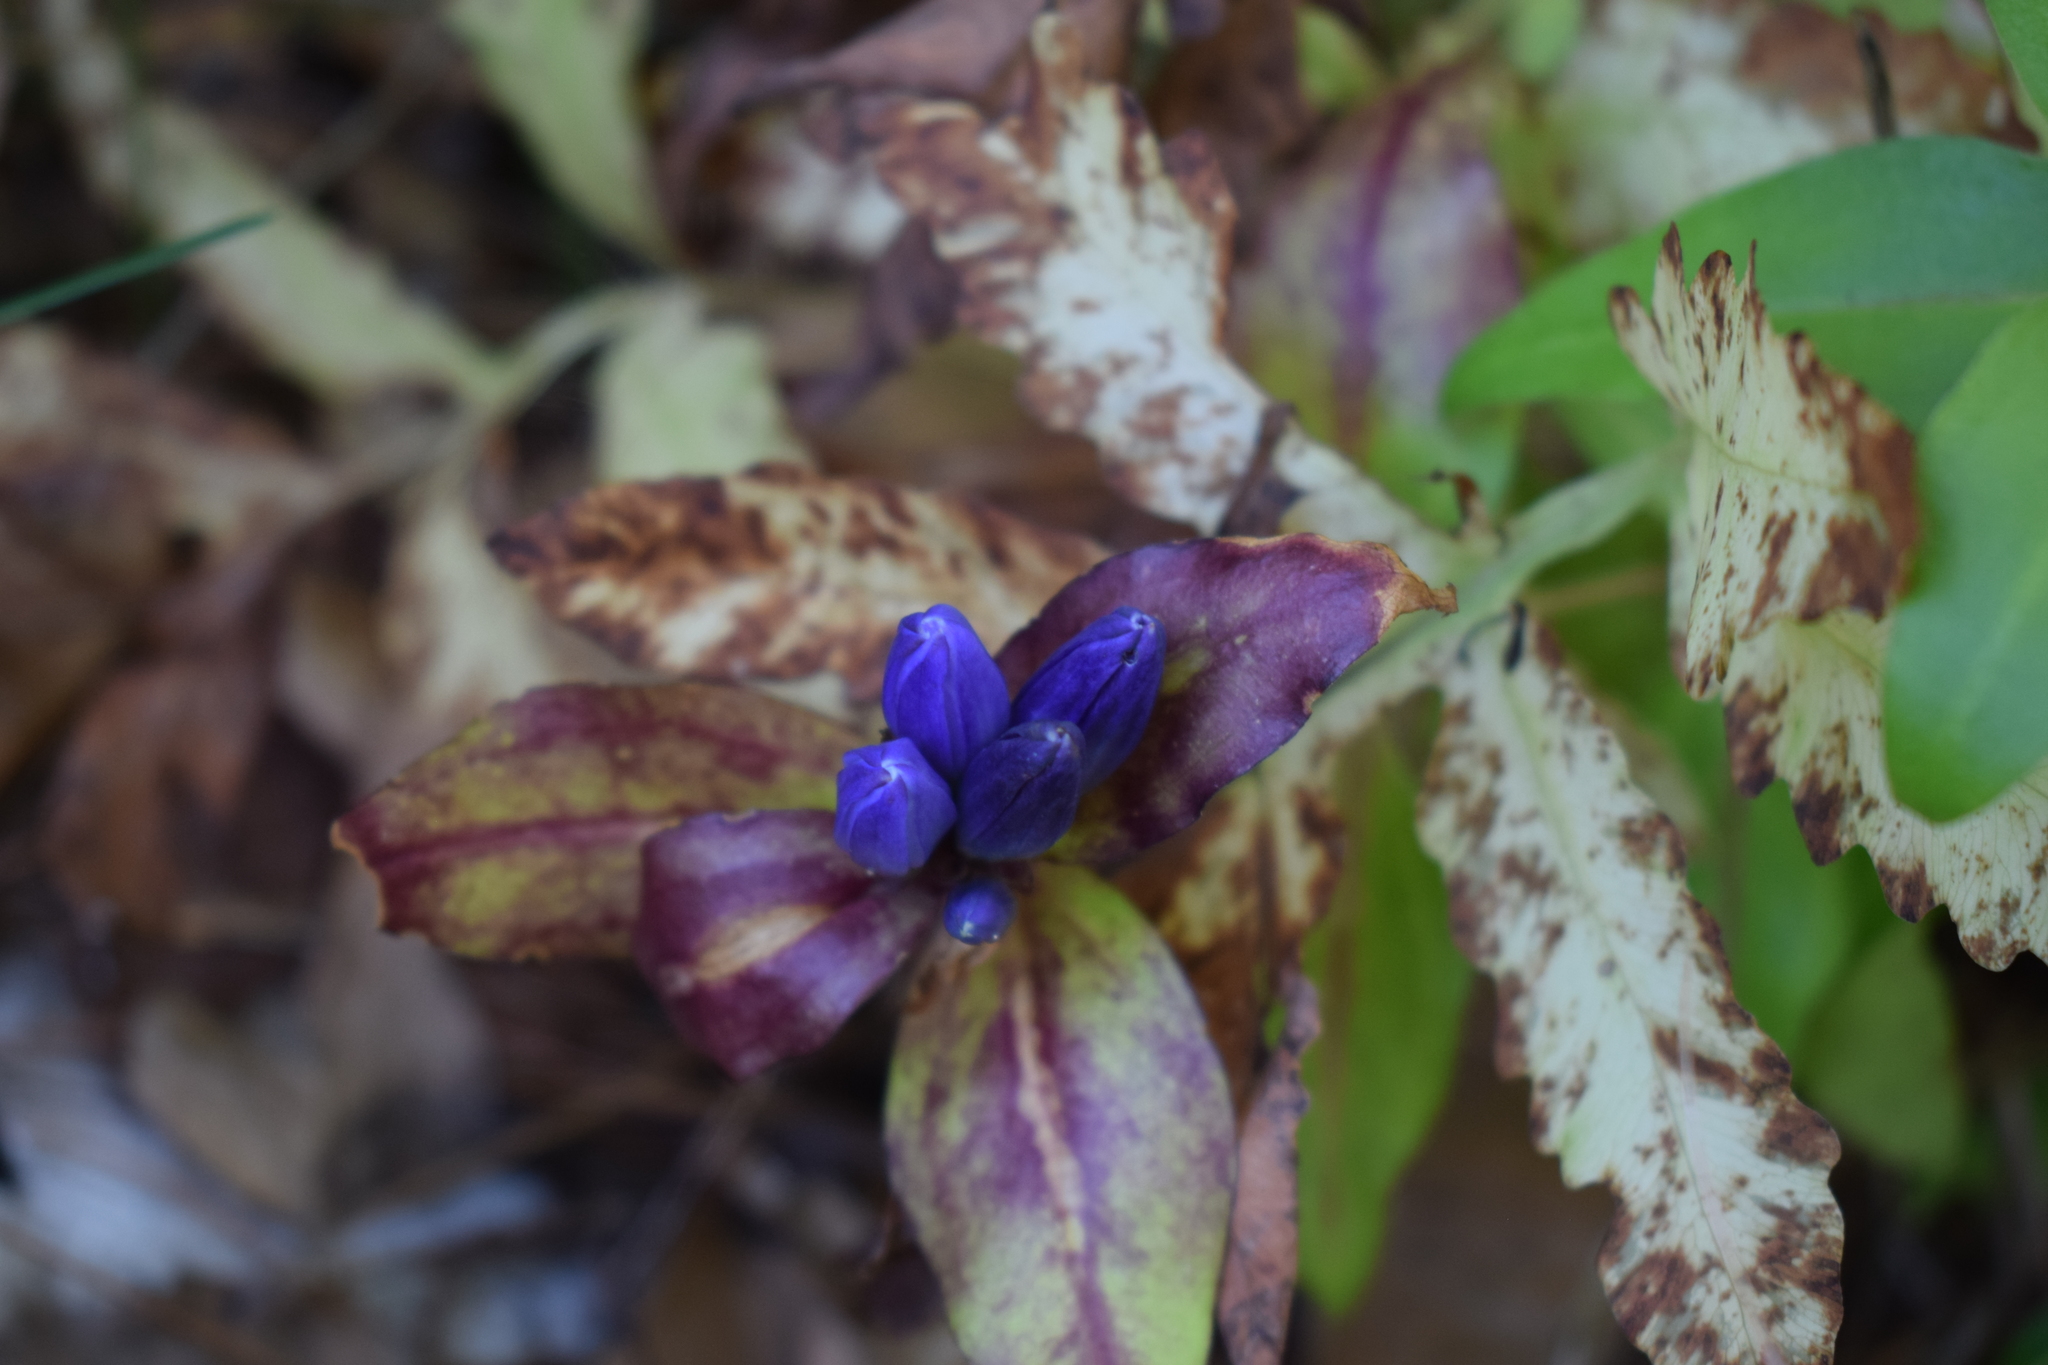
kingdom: Plantae
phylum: Tracheophyta
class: Magnoliopsida
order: Gentianales
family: Gentianaceae
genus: Gentiana
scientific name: Gentiana clausa
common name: Blind gentian
